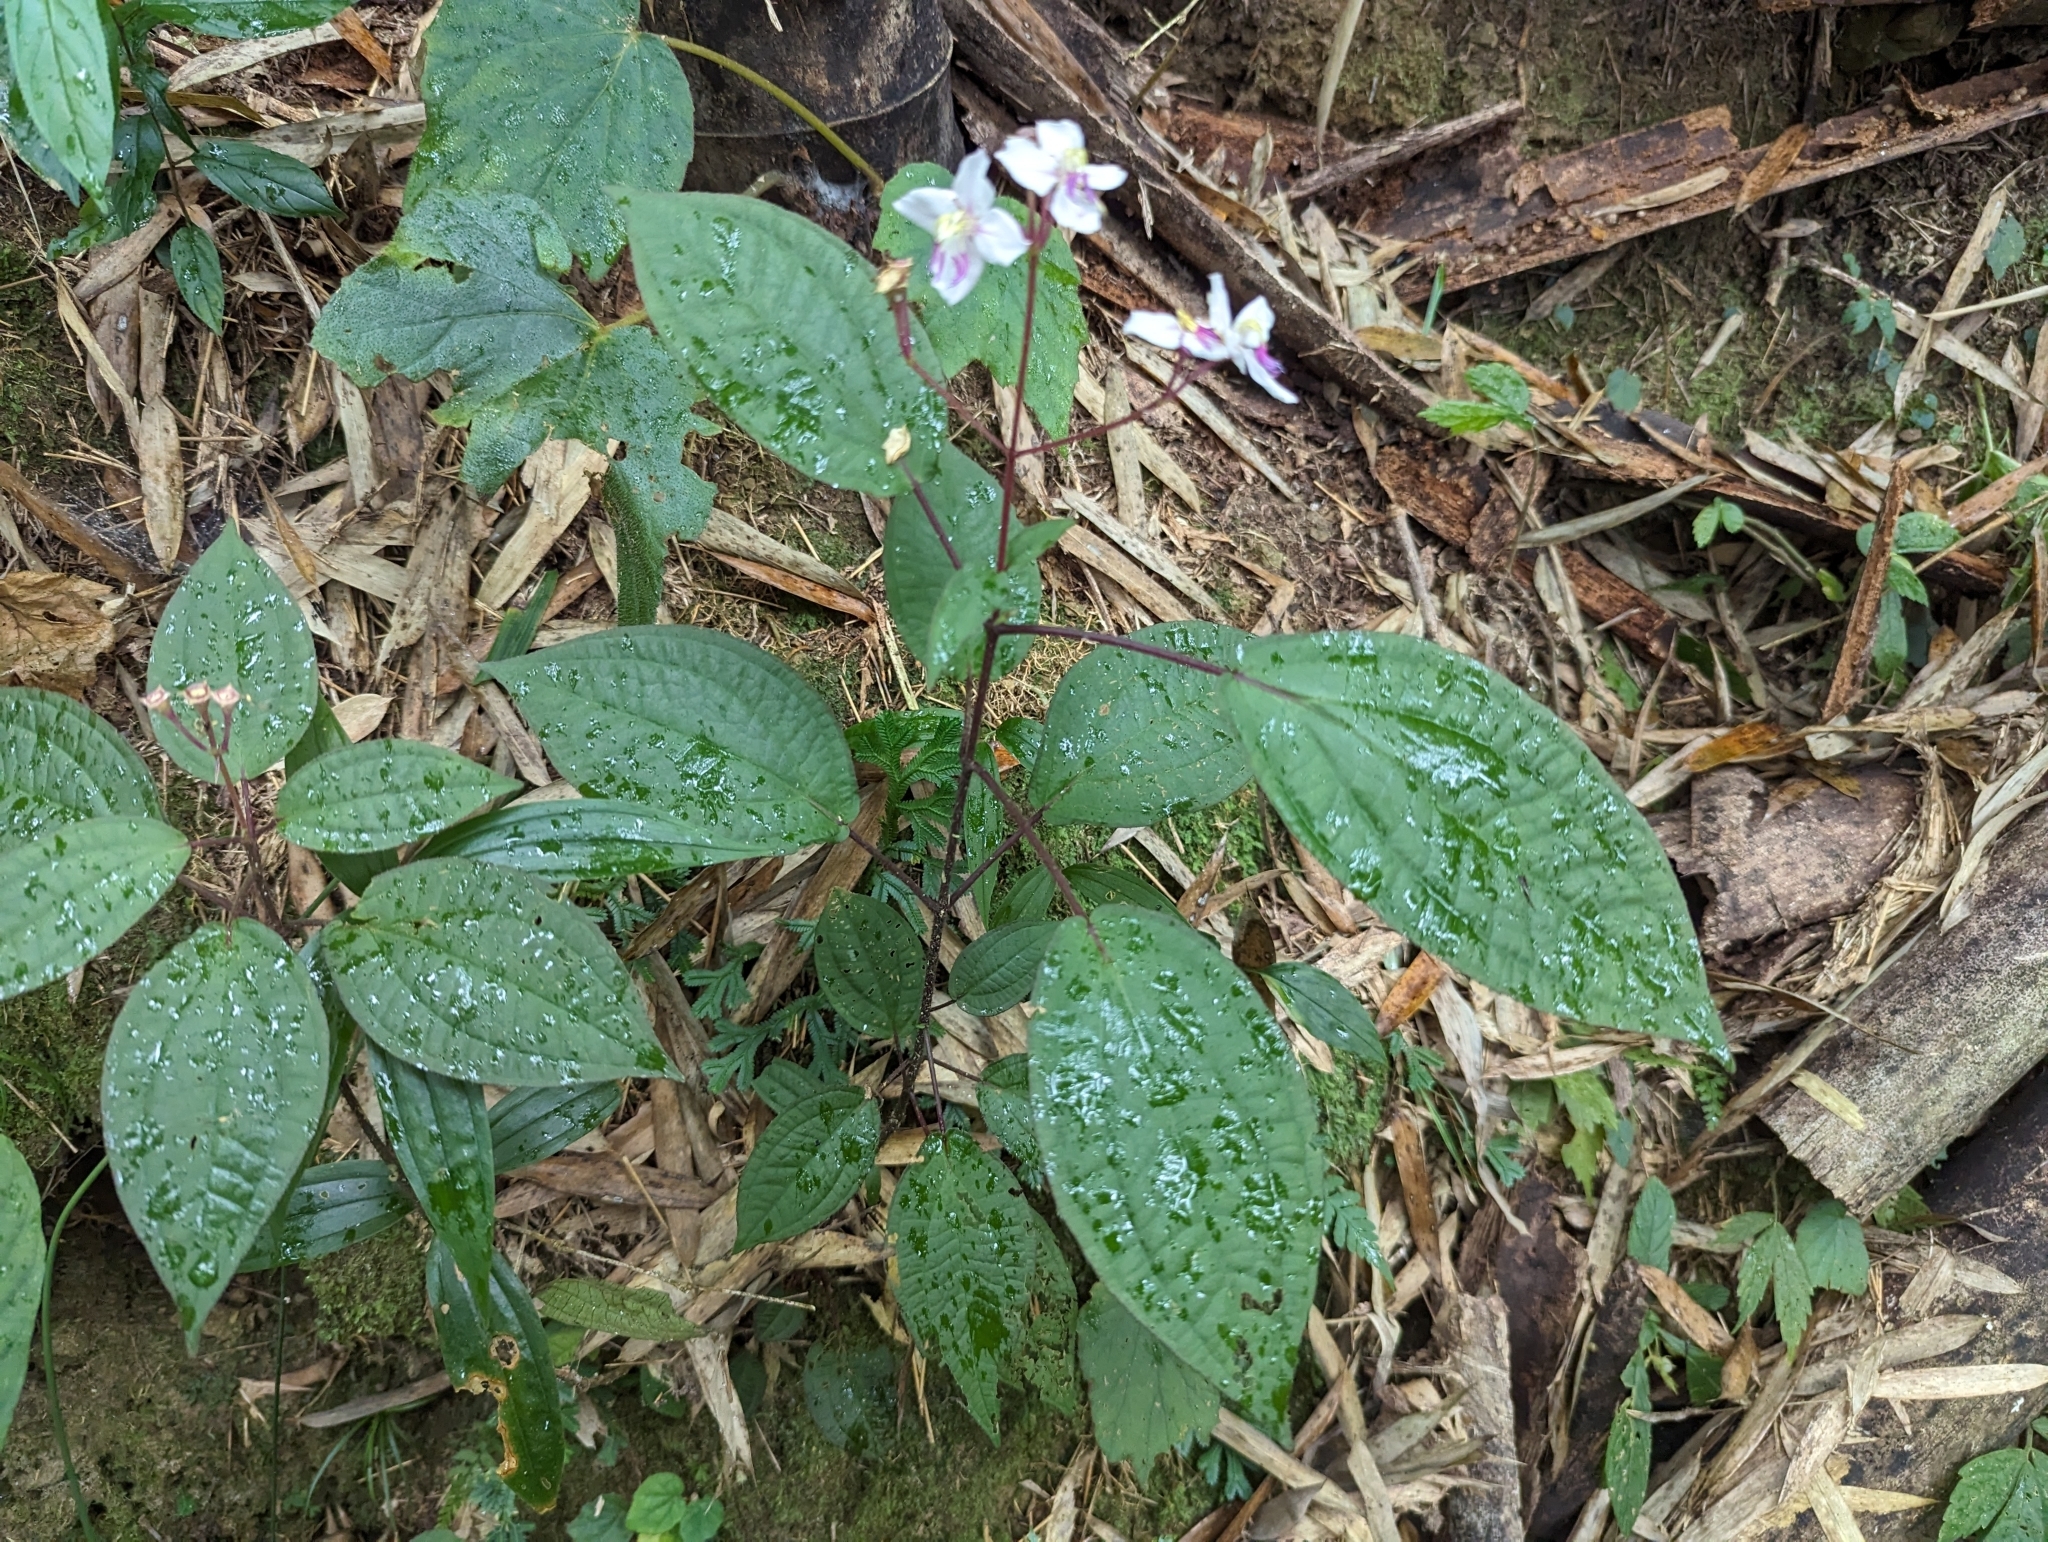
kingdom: Plantae
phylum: Tracheophyta
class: Magnoliopsida
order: Myrtales
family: Melastomataceae
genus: Bredia
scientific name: Bredia hirsuta
